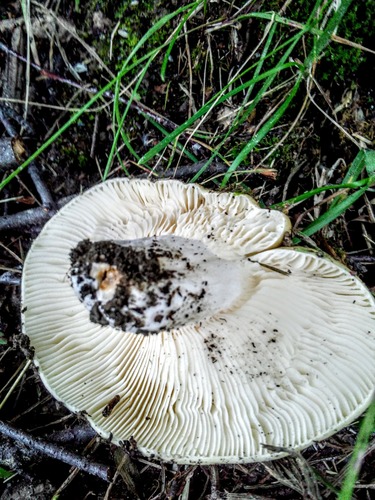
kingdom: Fungi
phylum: Basidiomycota
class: Agaricomycetes
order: Russulales
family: Russulaceae
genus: Russula
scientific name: Russula
